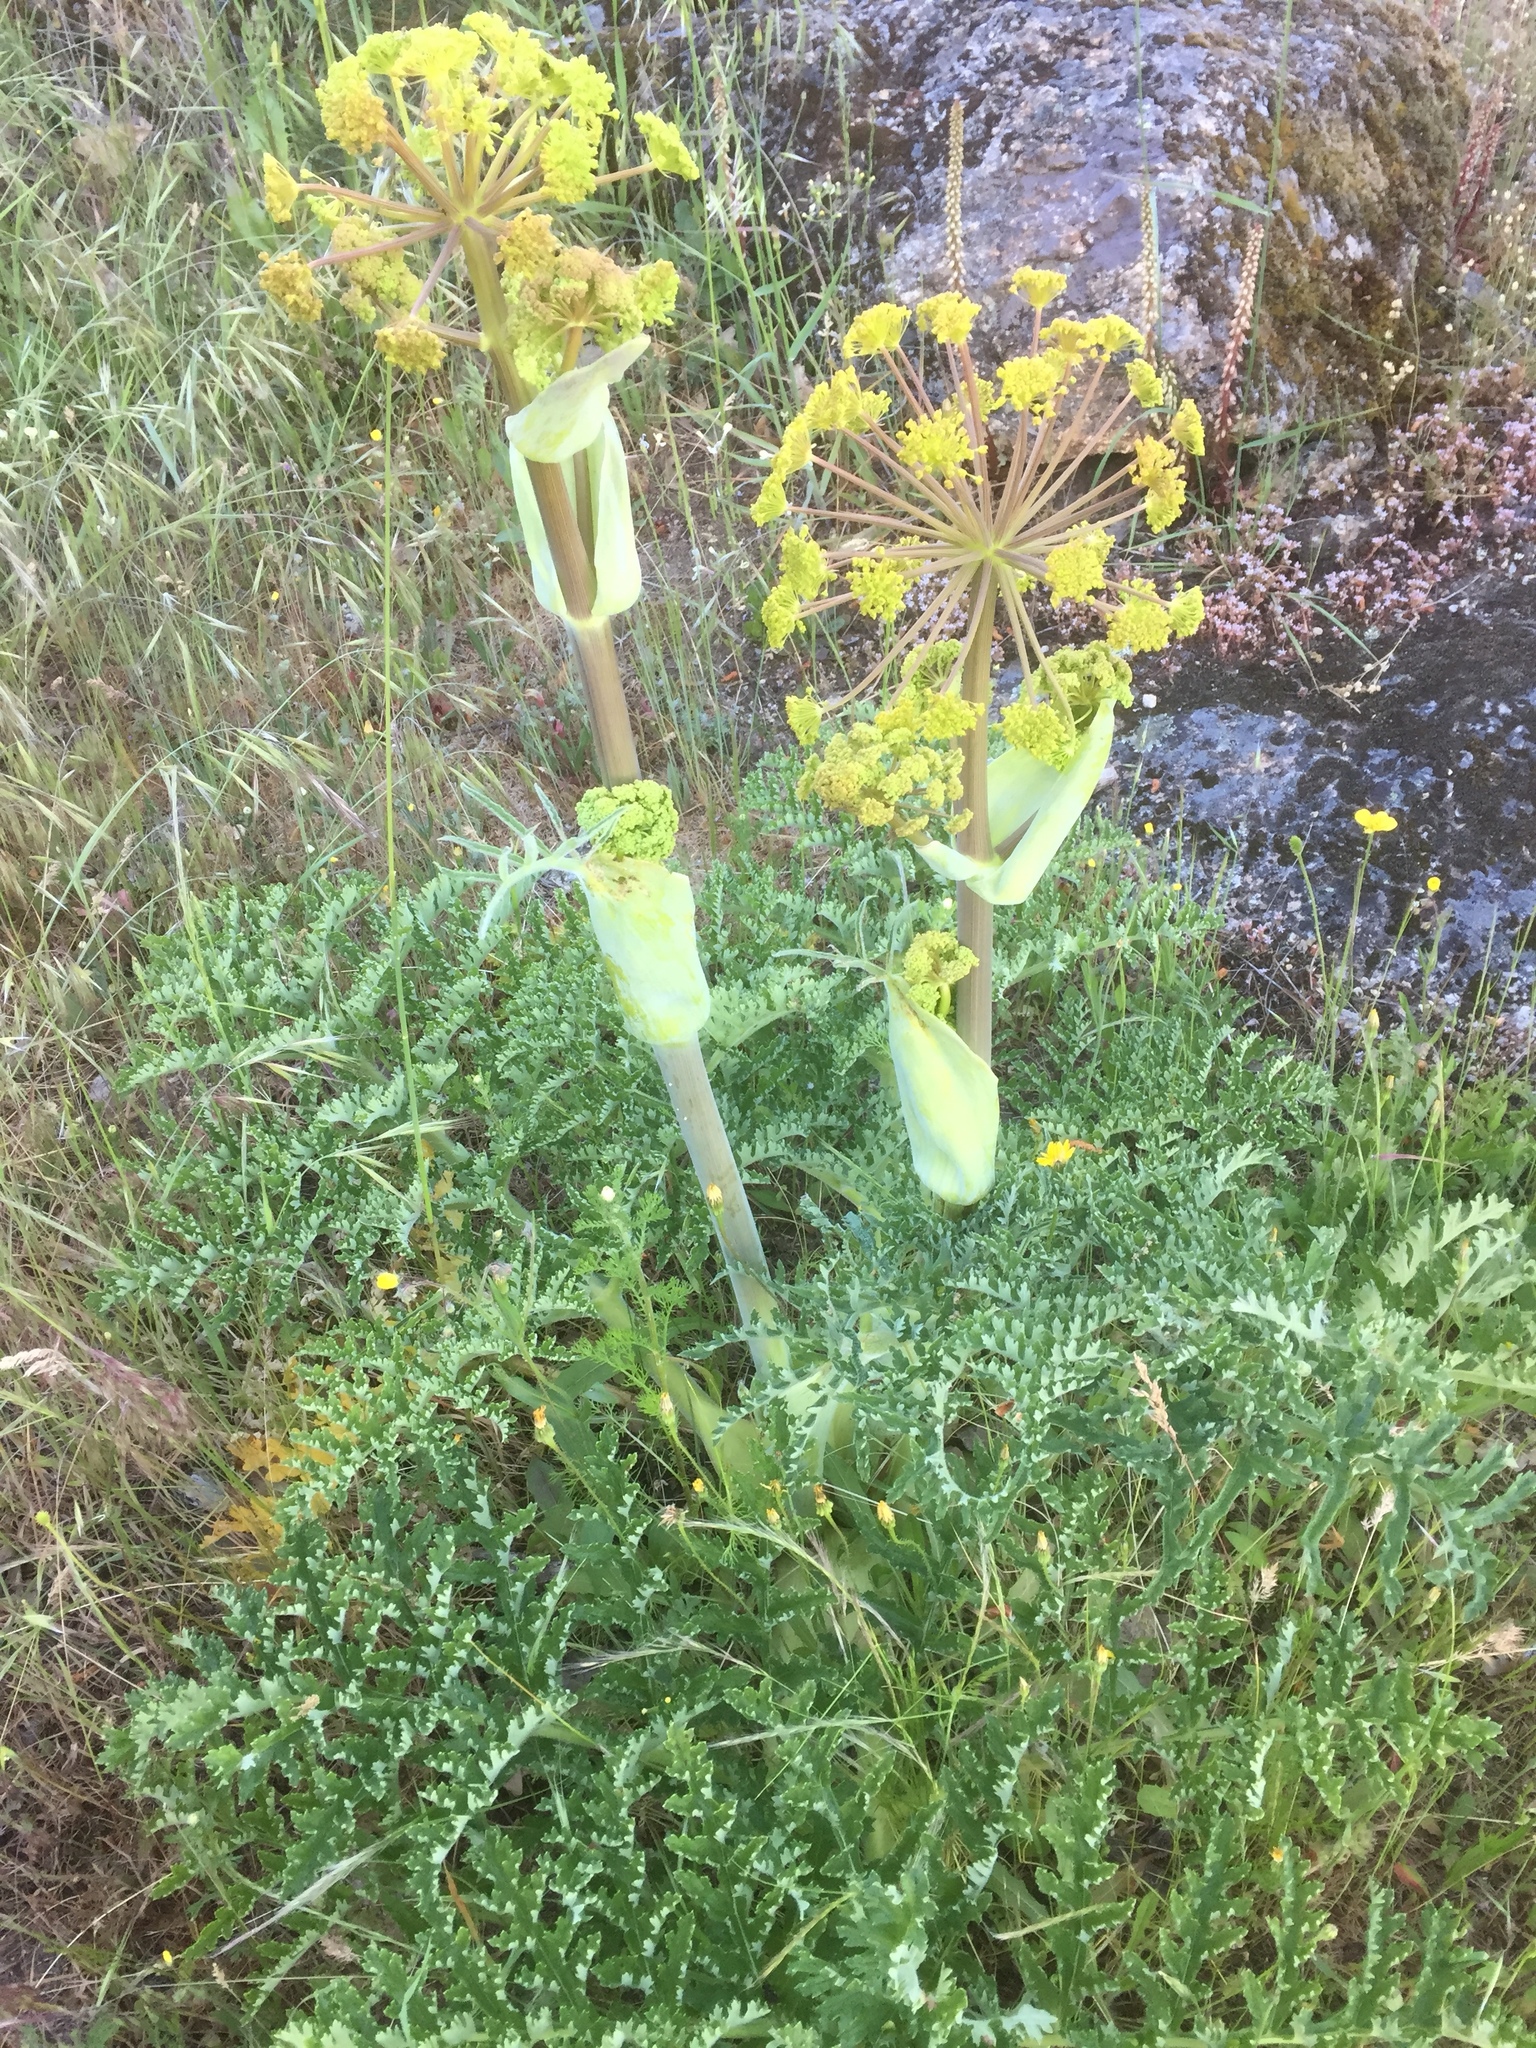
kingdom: Plantae
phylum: Tracheophyta
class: Magnoliopsida
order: Apiales
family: Apiaceae
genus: Thapsia
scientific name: Thapsia villosa
